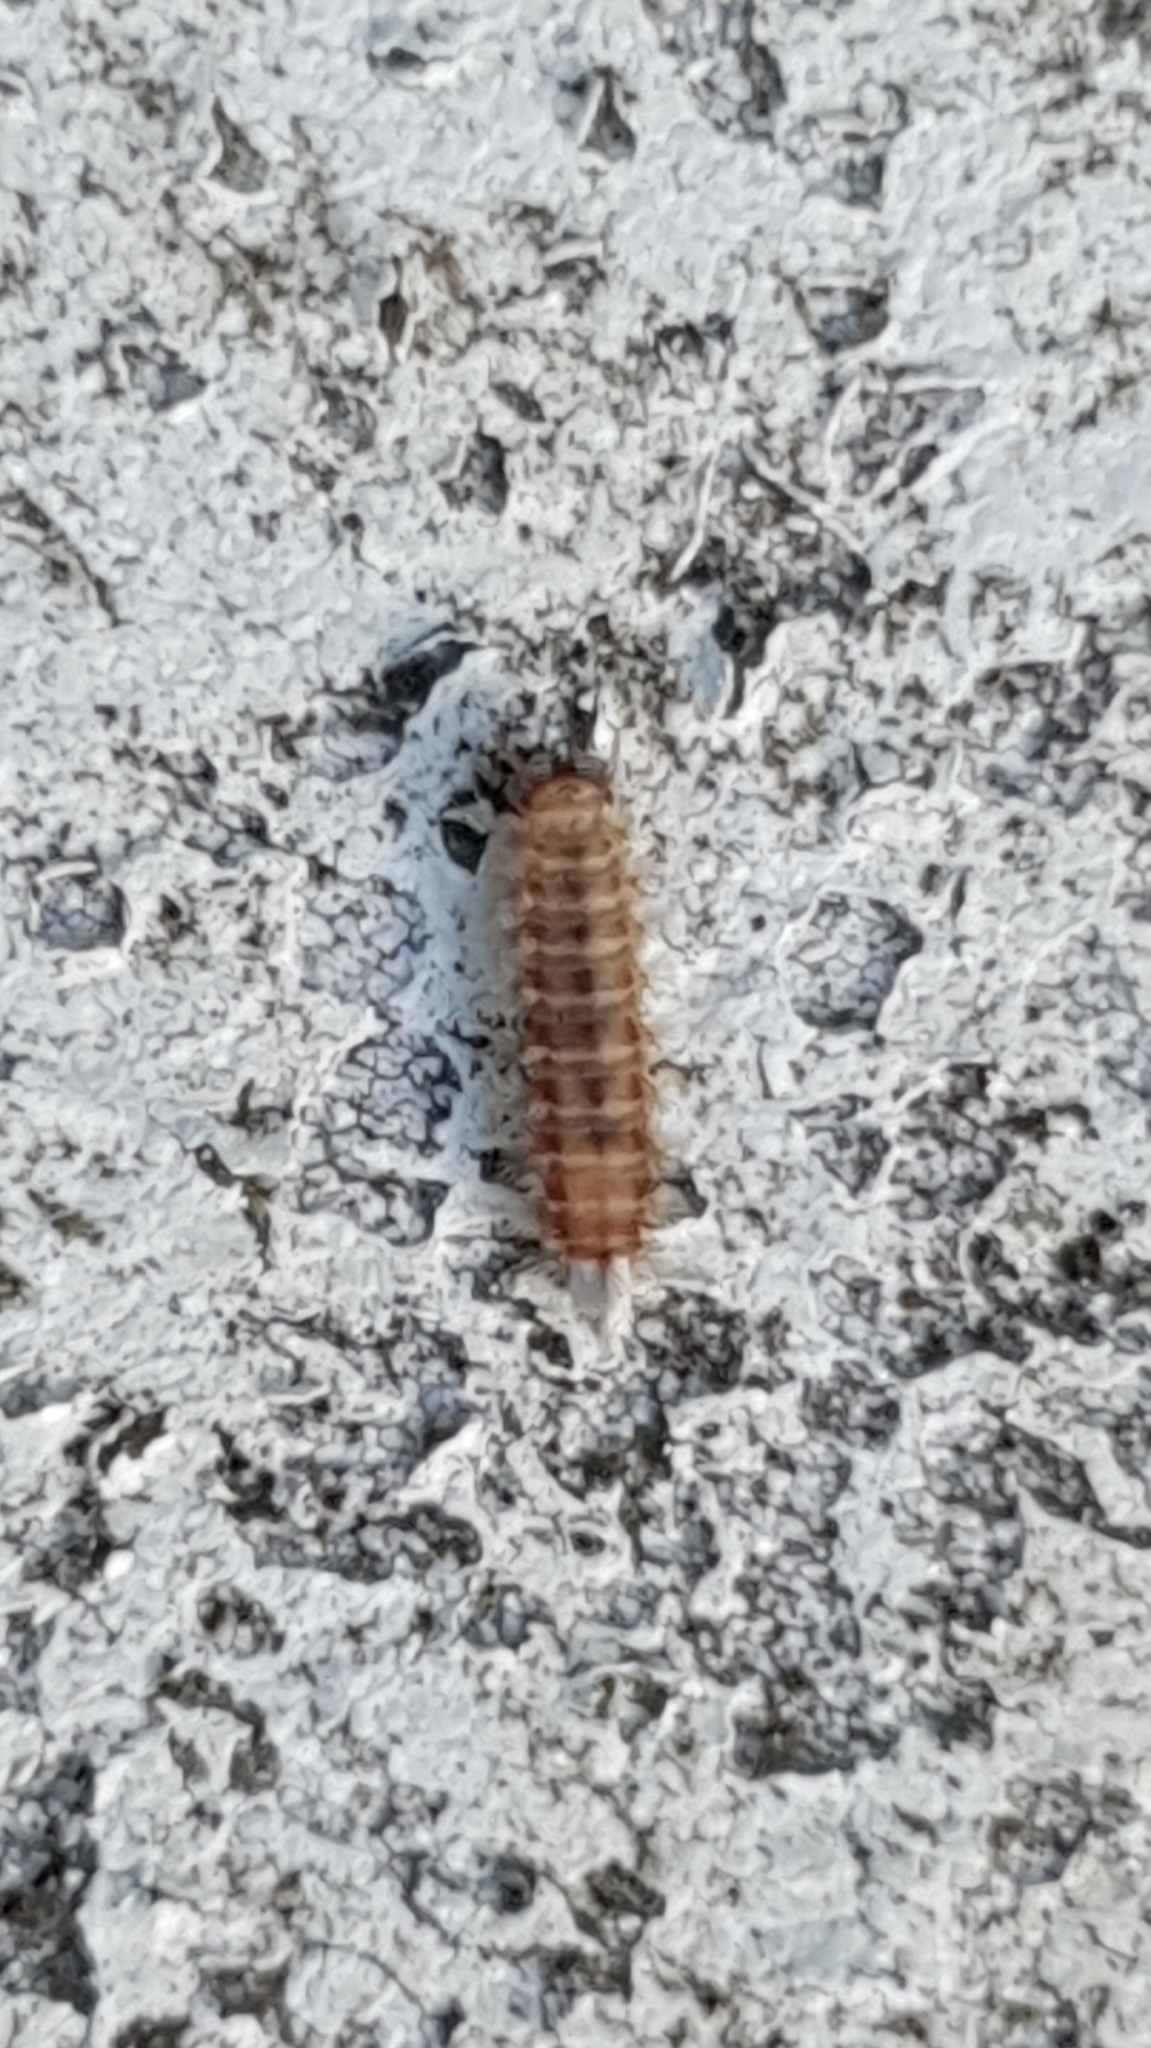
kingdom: Animalia
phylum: Arthropoda
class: Diplopoda
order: Polyxenida
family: Polyxenidae
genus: Polyxenus
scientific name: Polyxenus lagurus
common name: Bristly millipede
